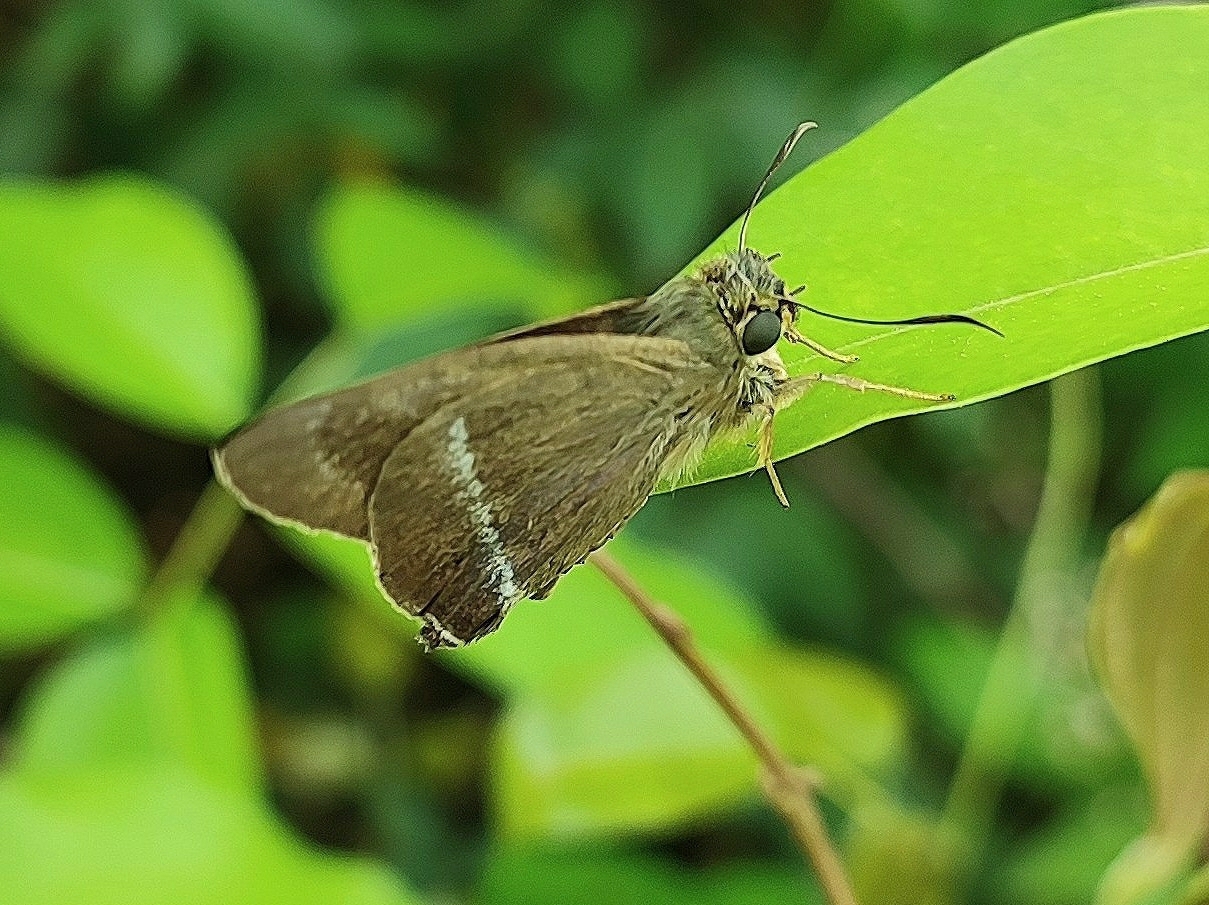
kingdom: Animalia
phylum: Arthropoda
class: Insecta
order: Lepidoptera
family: Hesperiidae
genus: Hasora
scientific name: Hasora chromus
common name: Common banded awl
